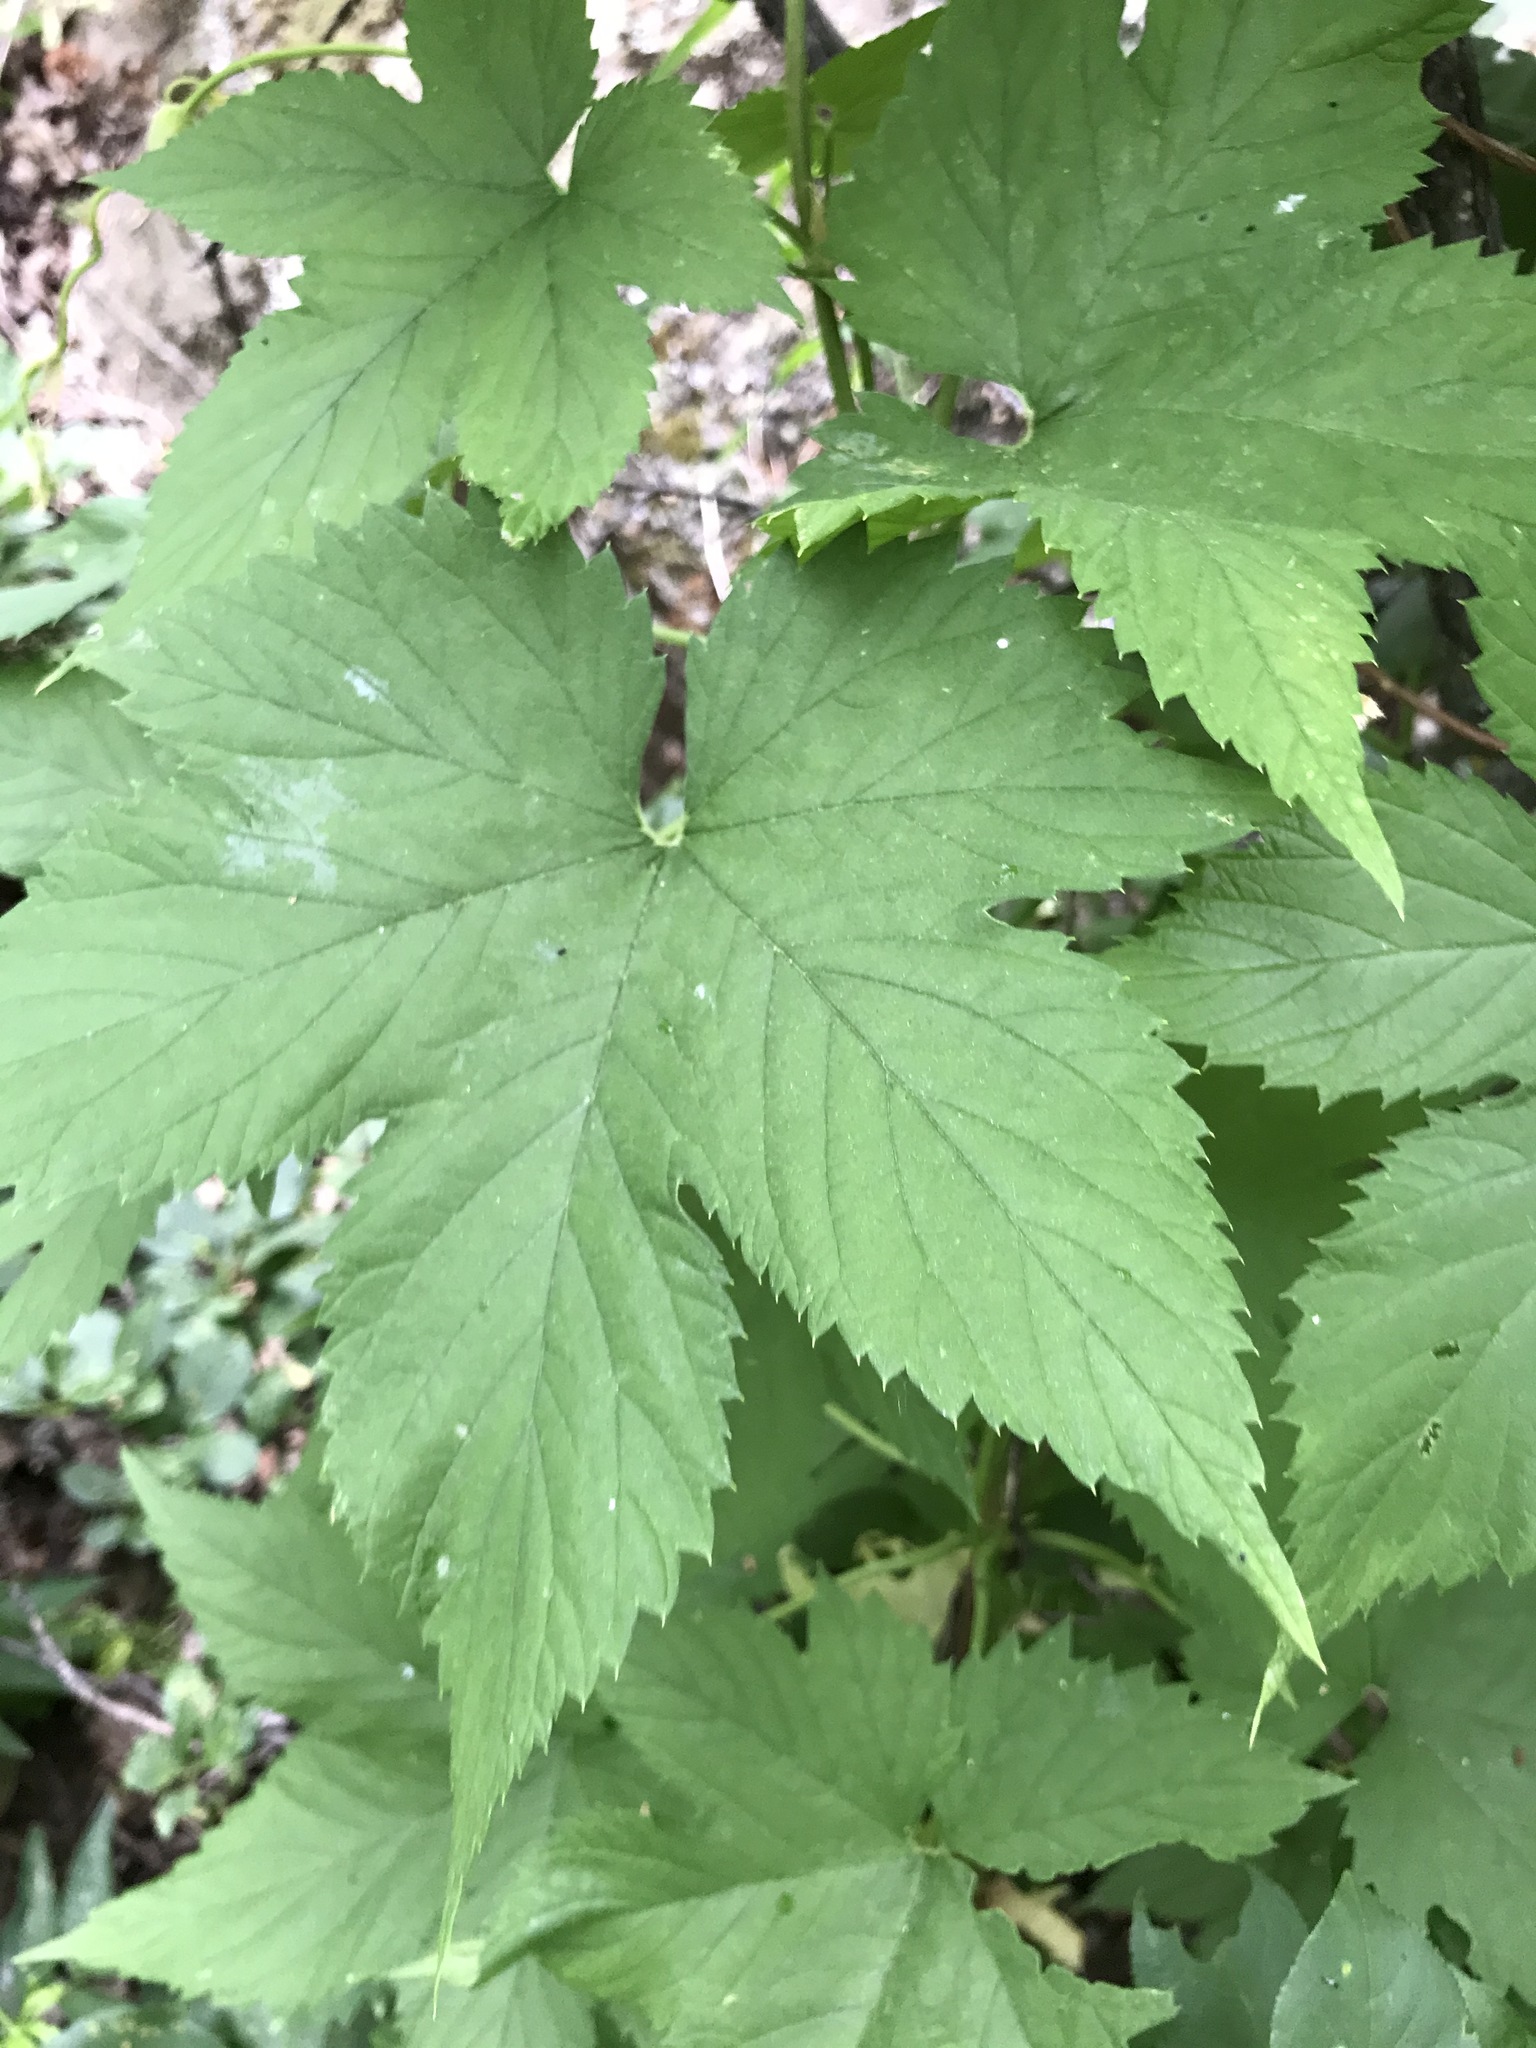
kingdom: Plantae
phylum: Tracheophyta
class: Magnoliopsida
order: Rosales
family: Cannabaceae
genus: Humulus
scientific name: Humulus lupulus
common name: Hop
